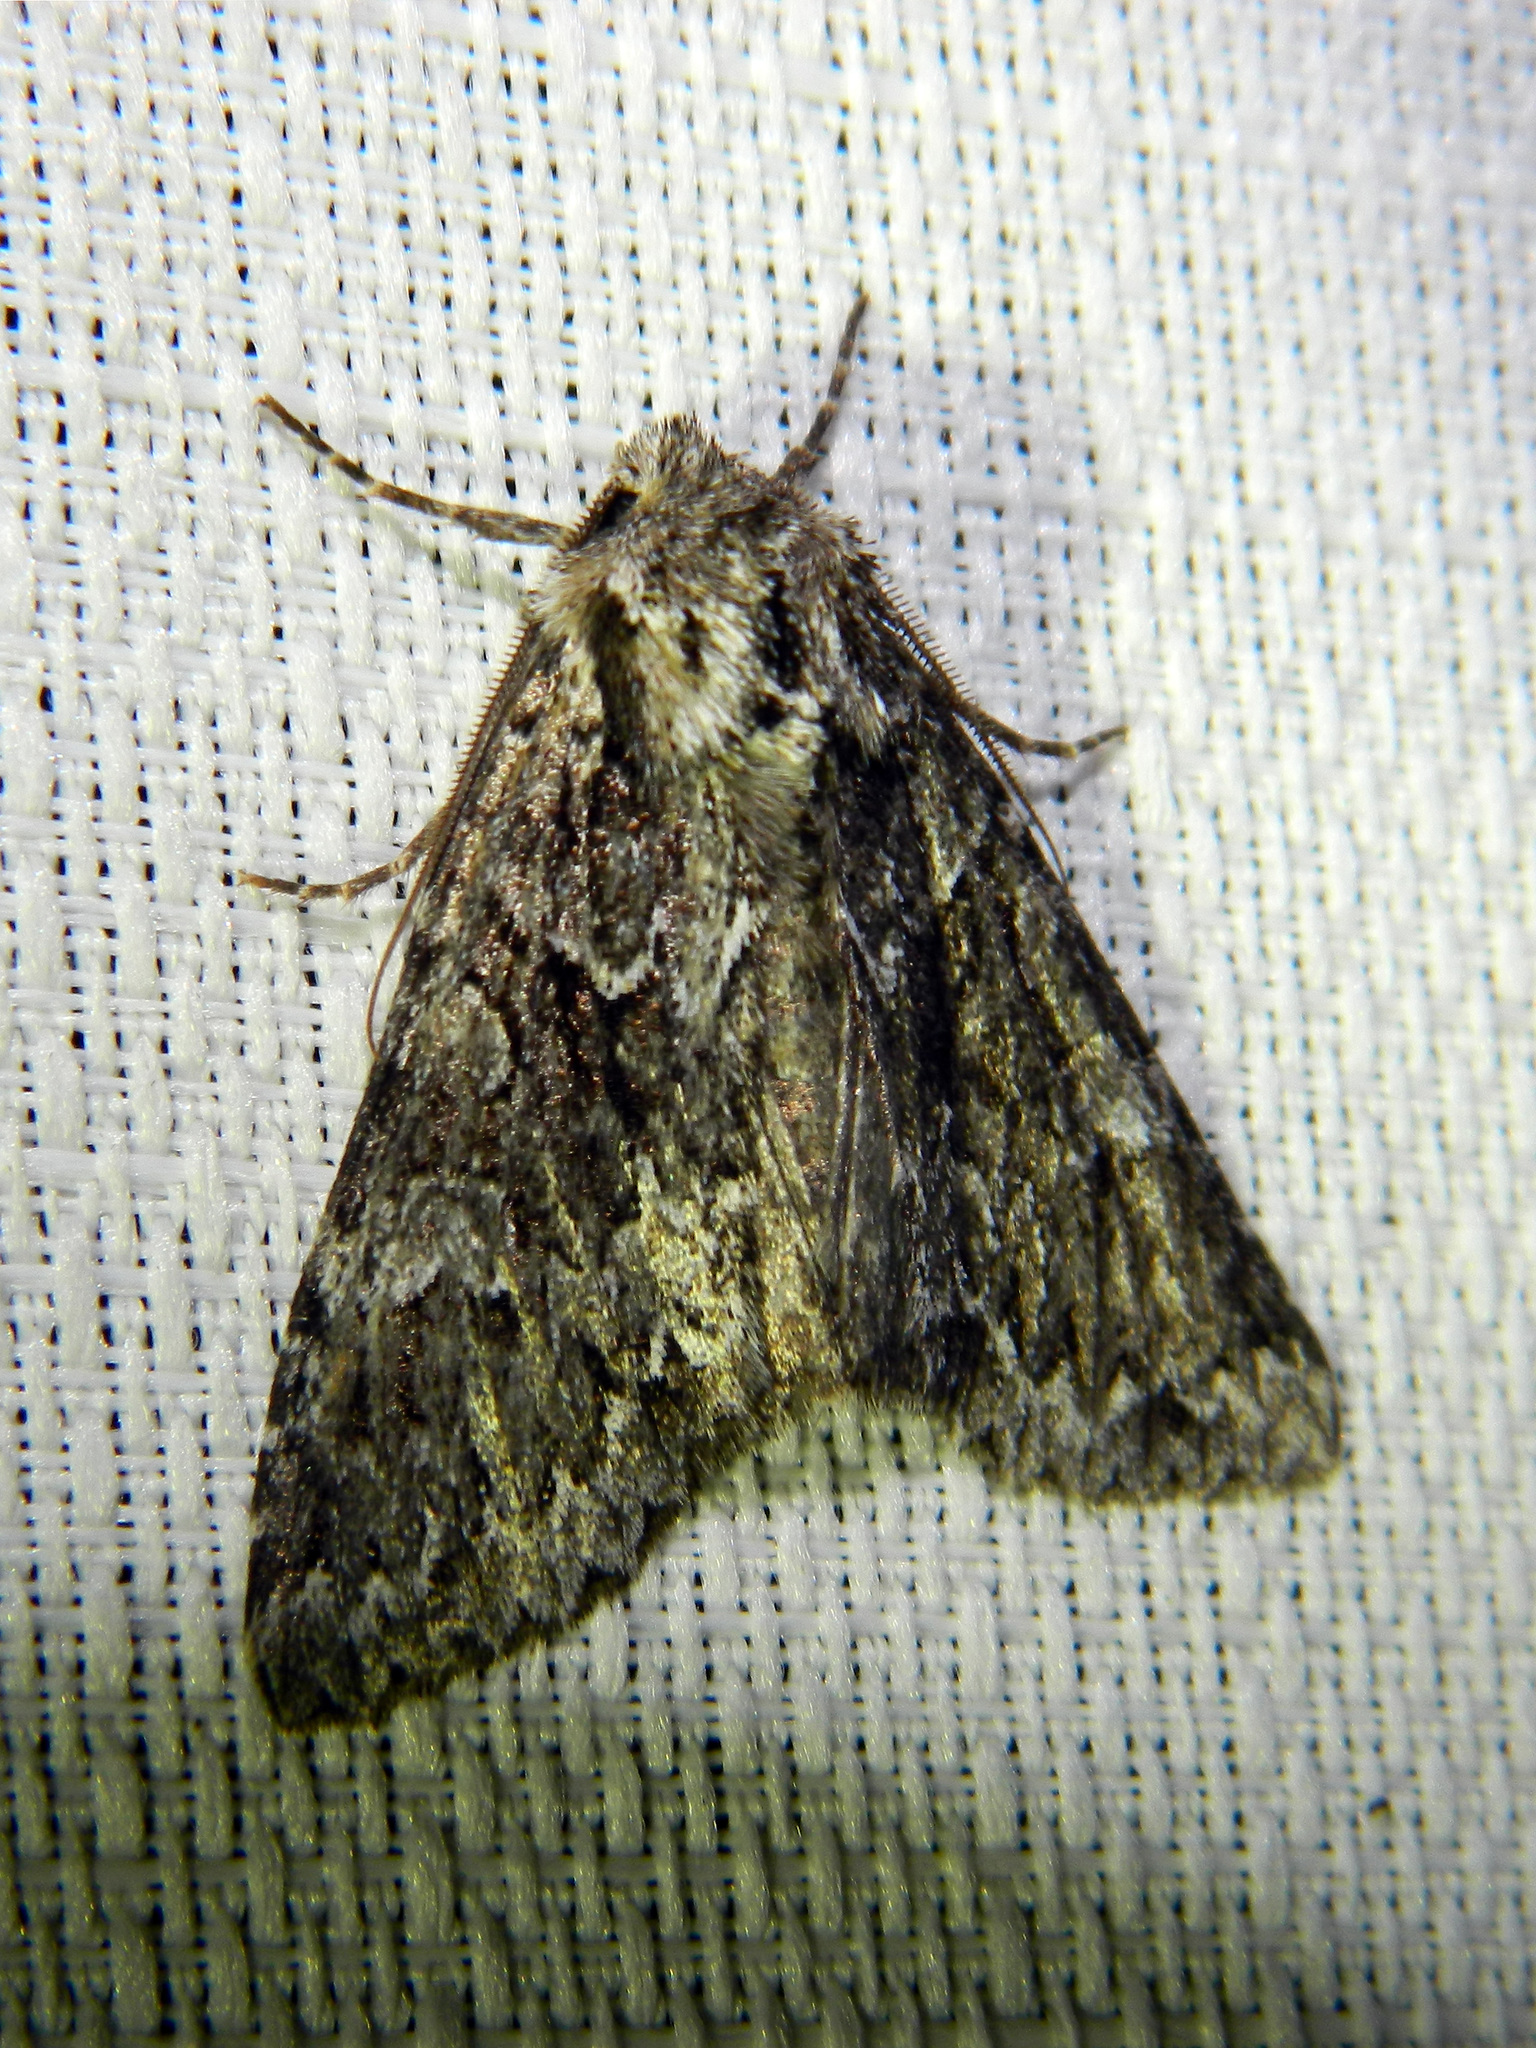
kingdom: Animalia
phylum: Arthropoda
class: Insecta
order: Lepidoptera
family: Noctuidae
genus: Platypolia
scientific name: Platypolia anceps
